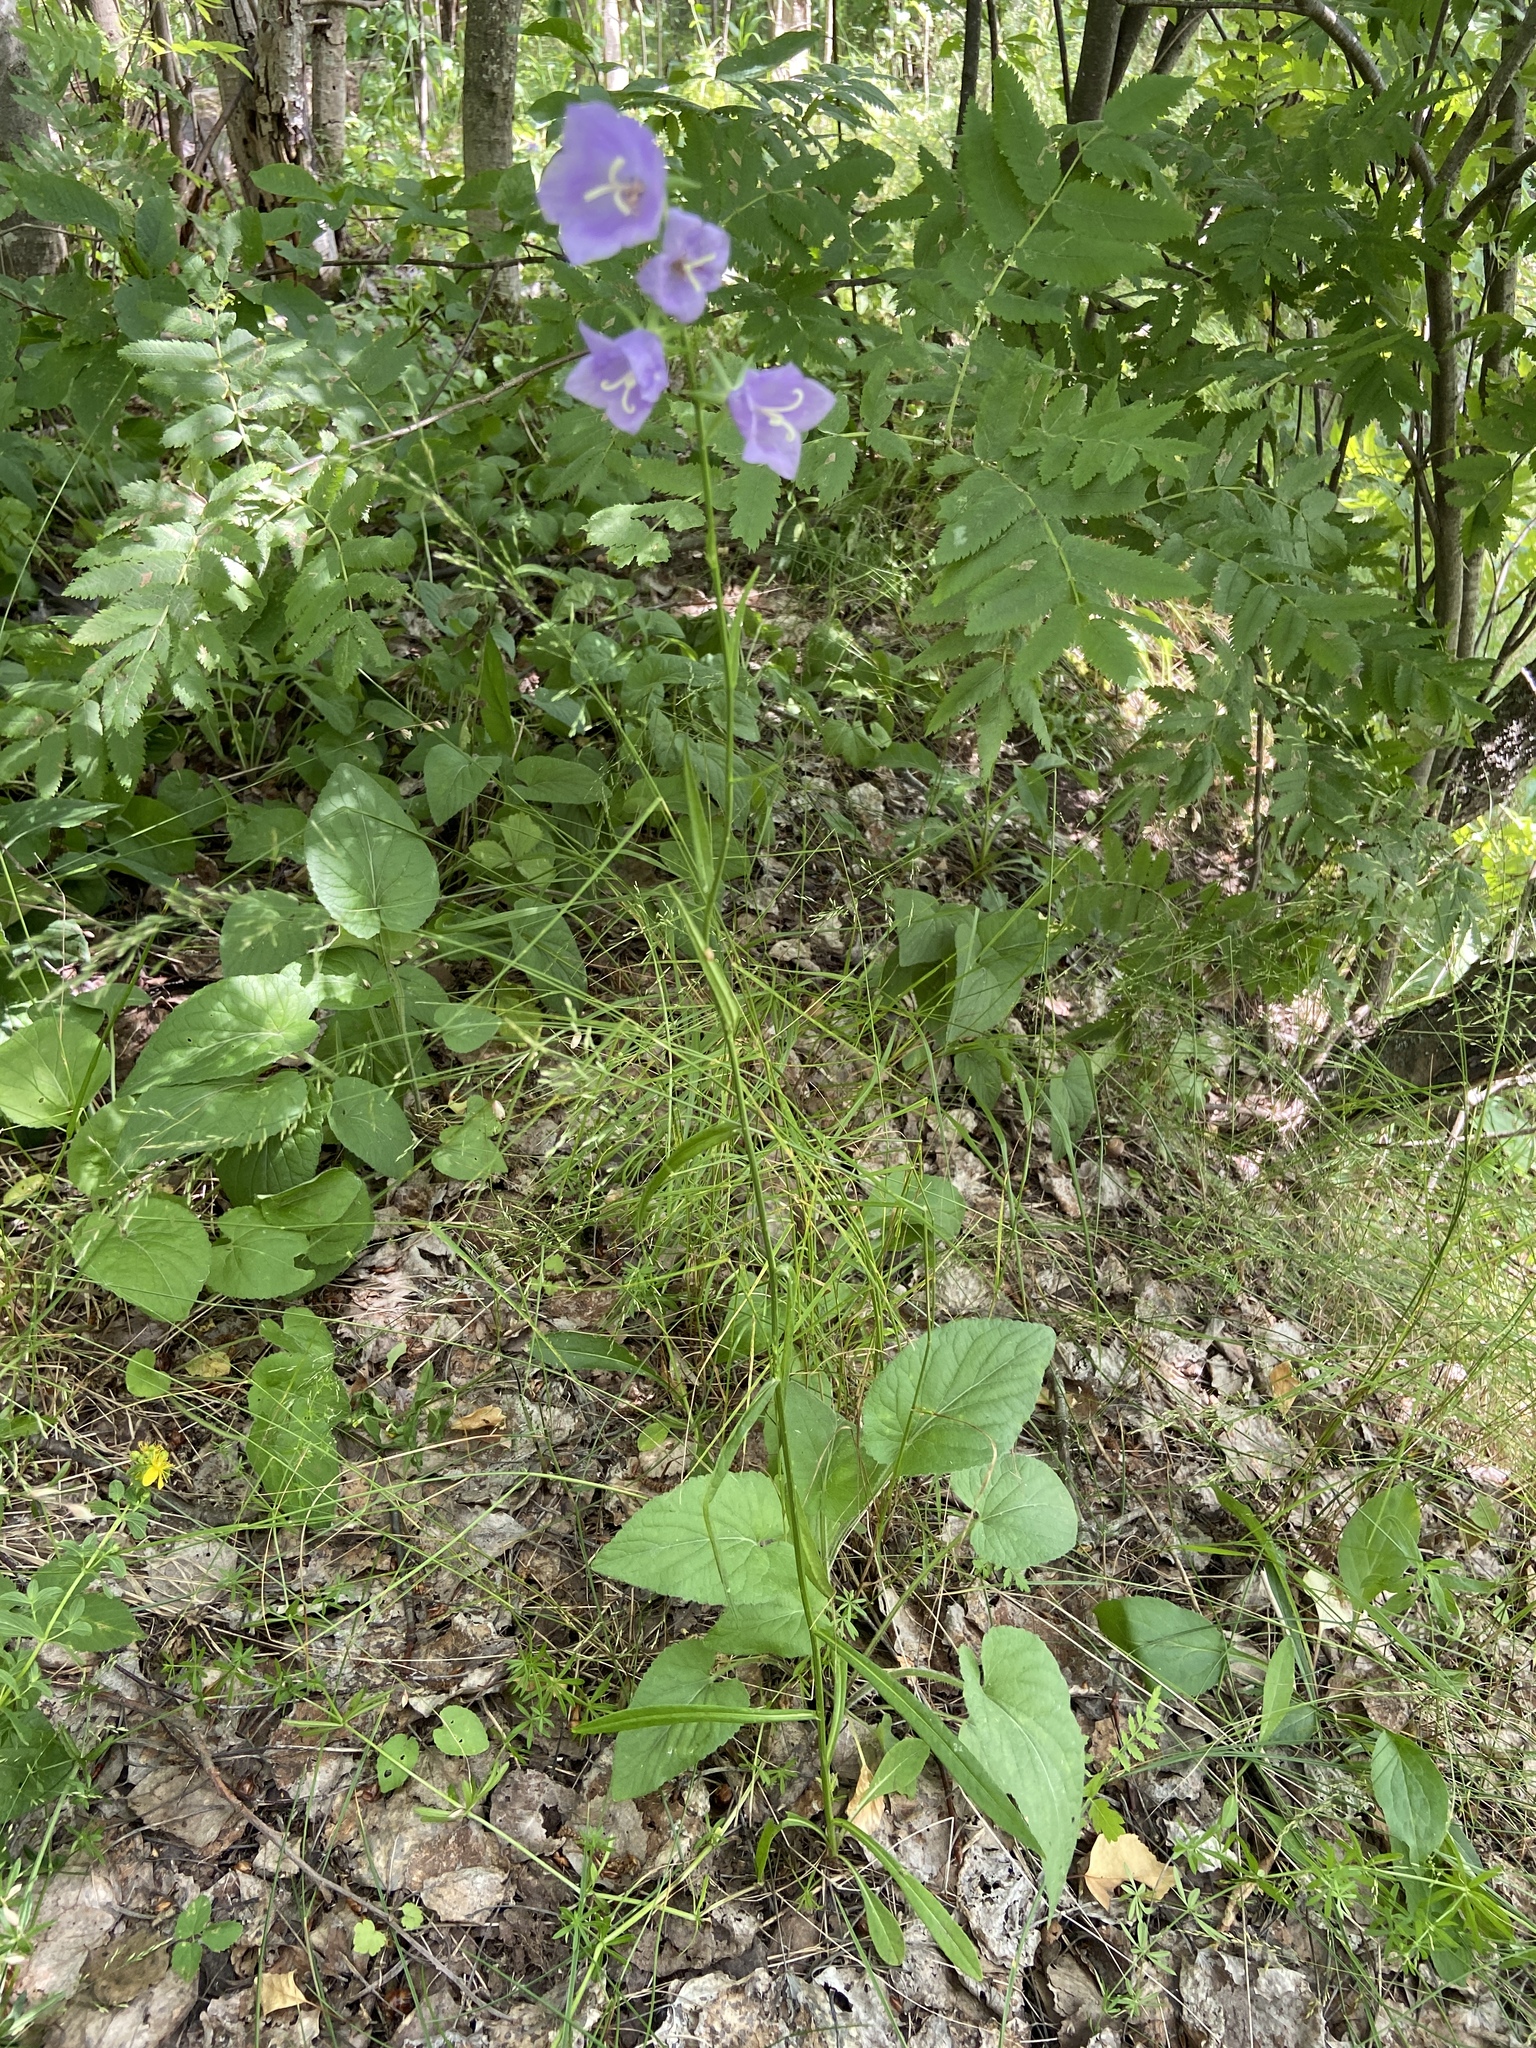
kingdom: Plantae
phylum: Tracheophyta
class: Magnoliopsida
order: Asterales
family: Campanulaceae
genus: Campanula
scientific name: Campanula persicifolia
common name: Peach-leaved bellflower
